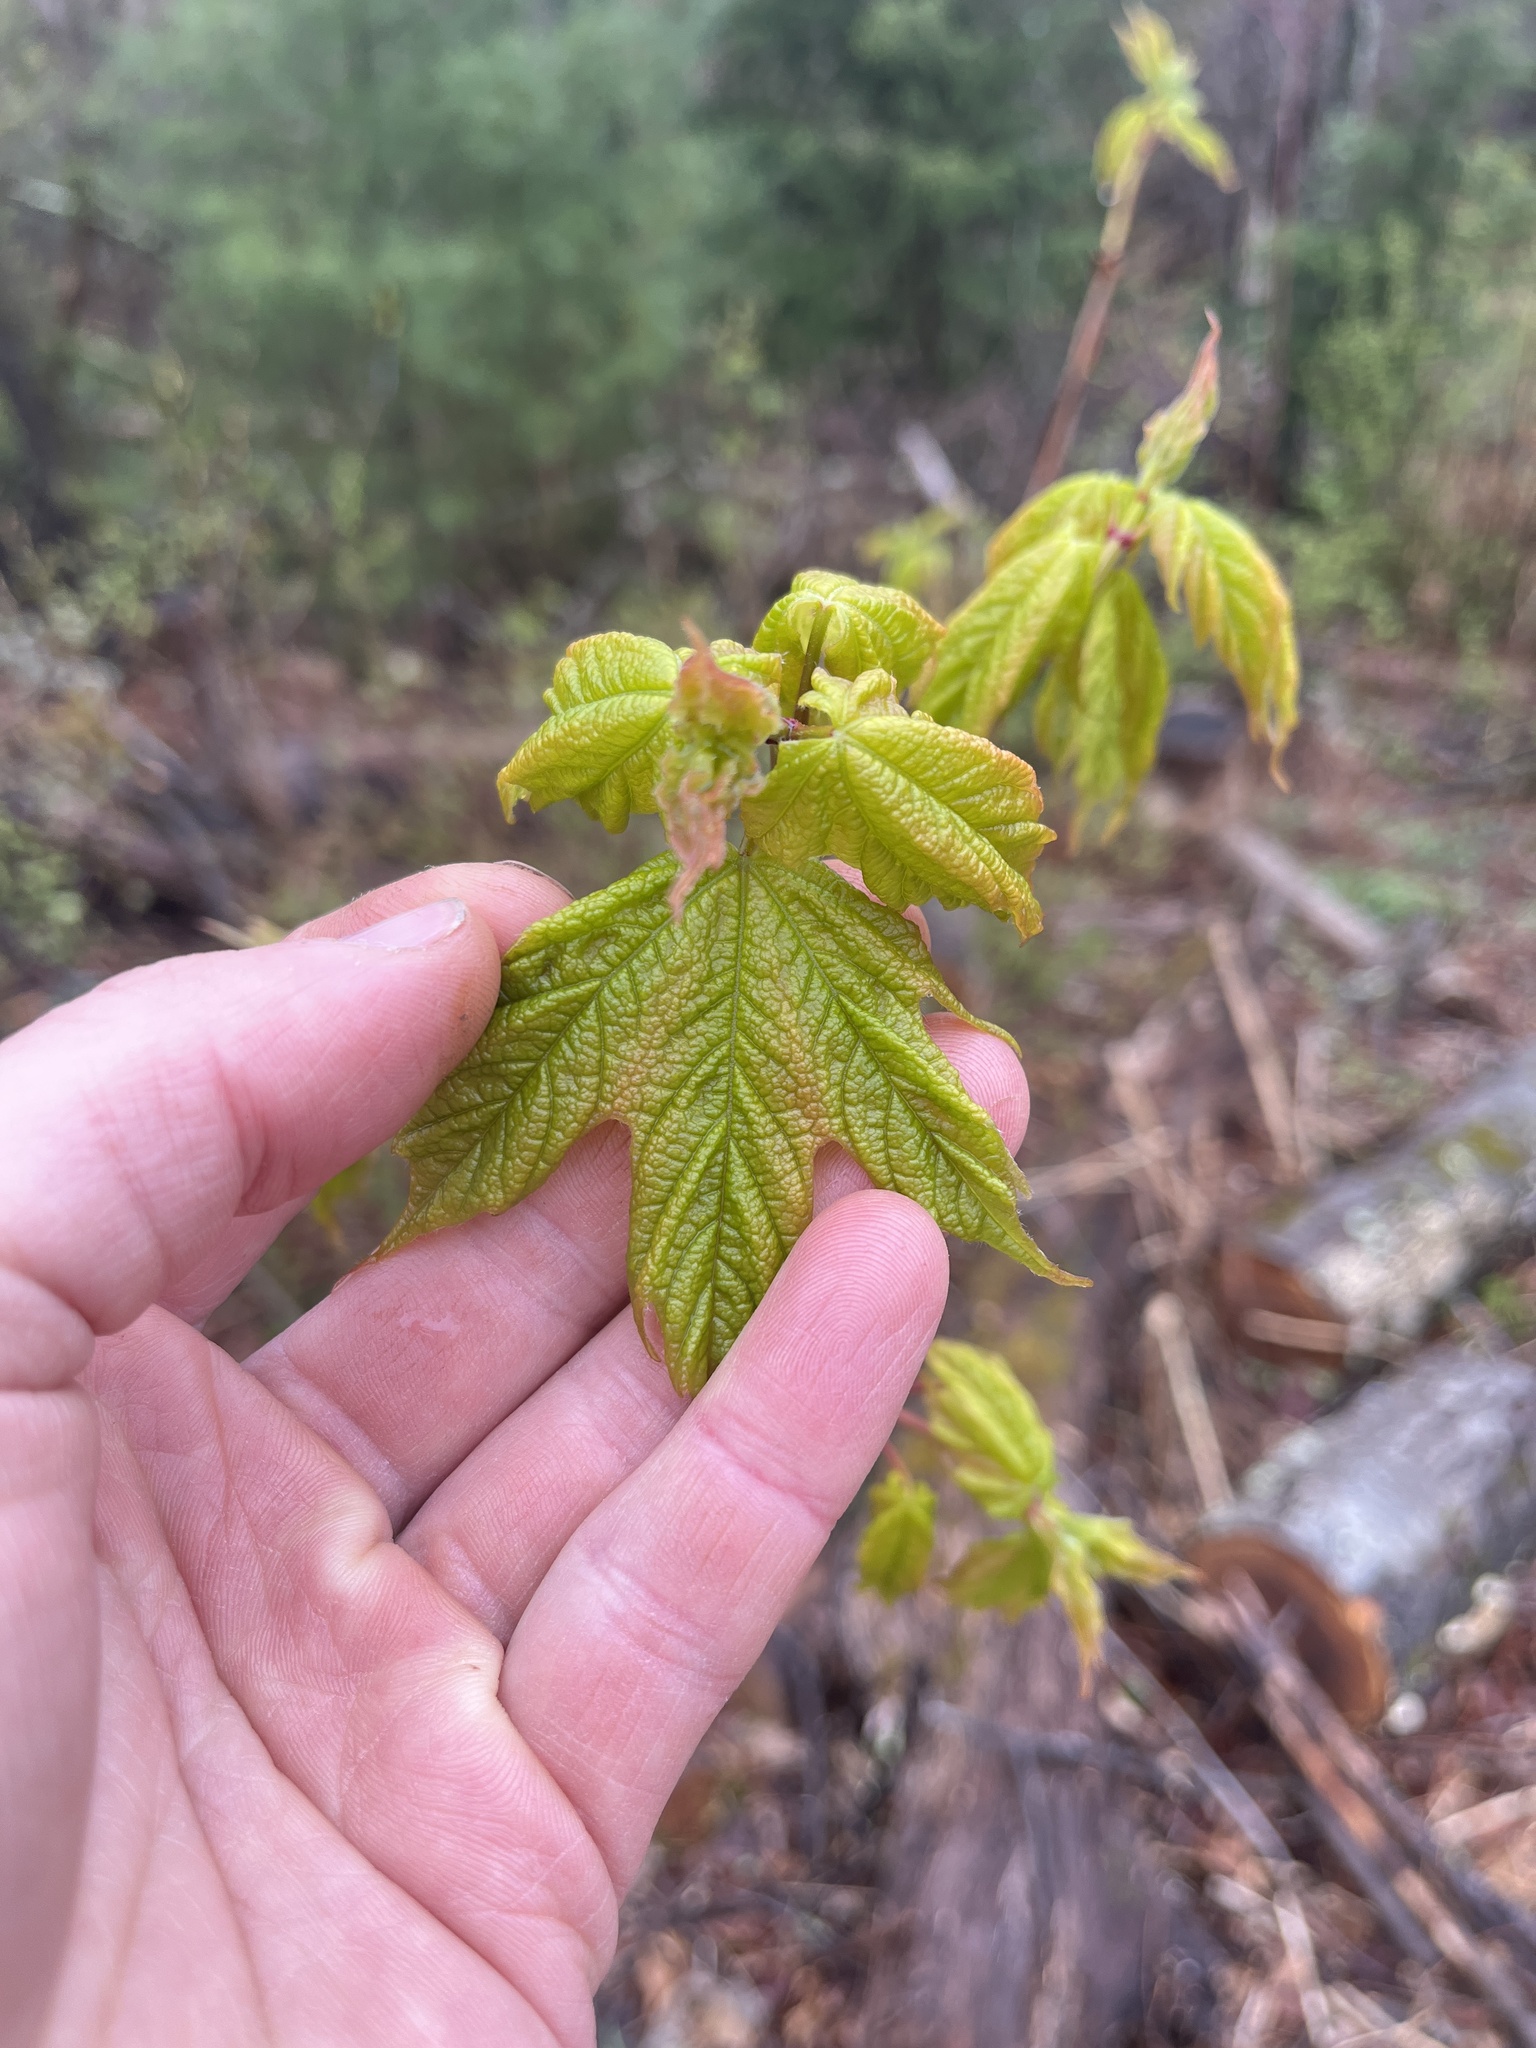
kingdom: Plantae
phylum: Tracheophyta
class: Magnoliopsida
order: Sapindales
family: Sapindaceae
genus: Acer
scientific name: Acer saccharum
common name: Sugar maple
